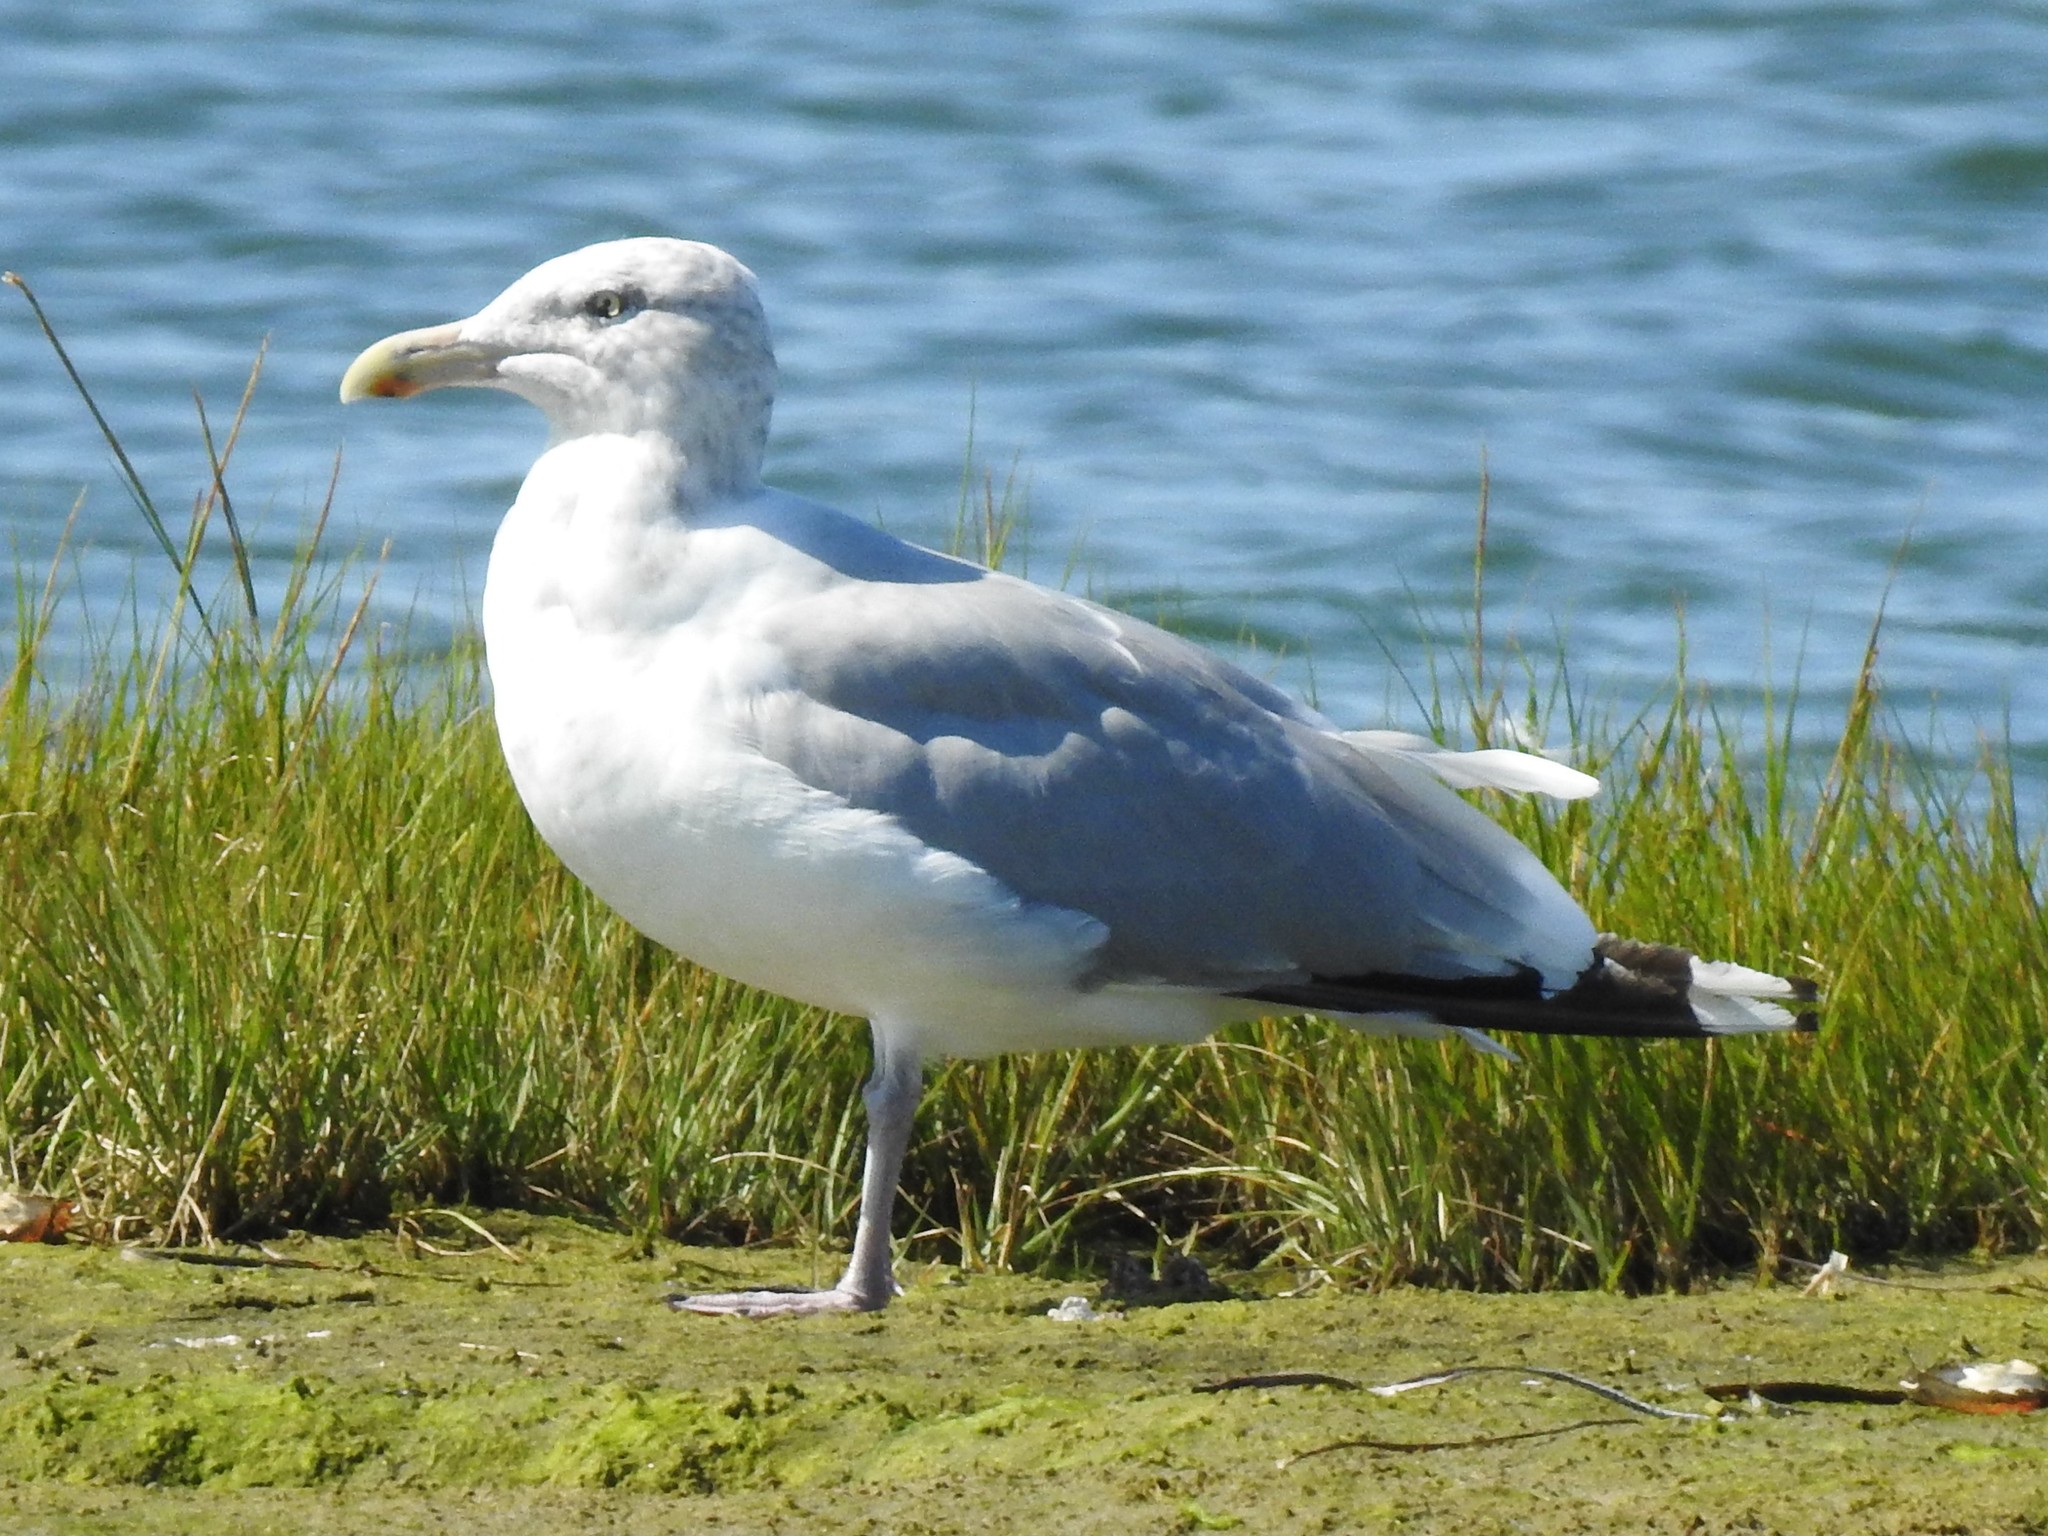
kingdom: Animalia
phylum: Chordata
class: Aves
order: Charadriiformes
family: Laridae
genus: Larus
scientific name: Larus argentatus
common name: Herring gull
